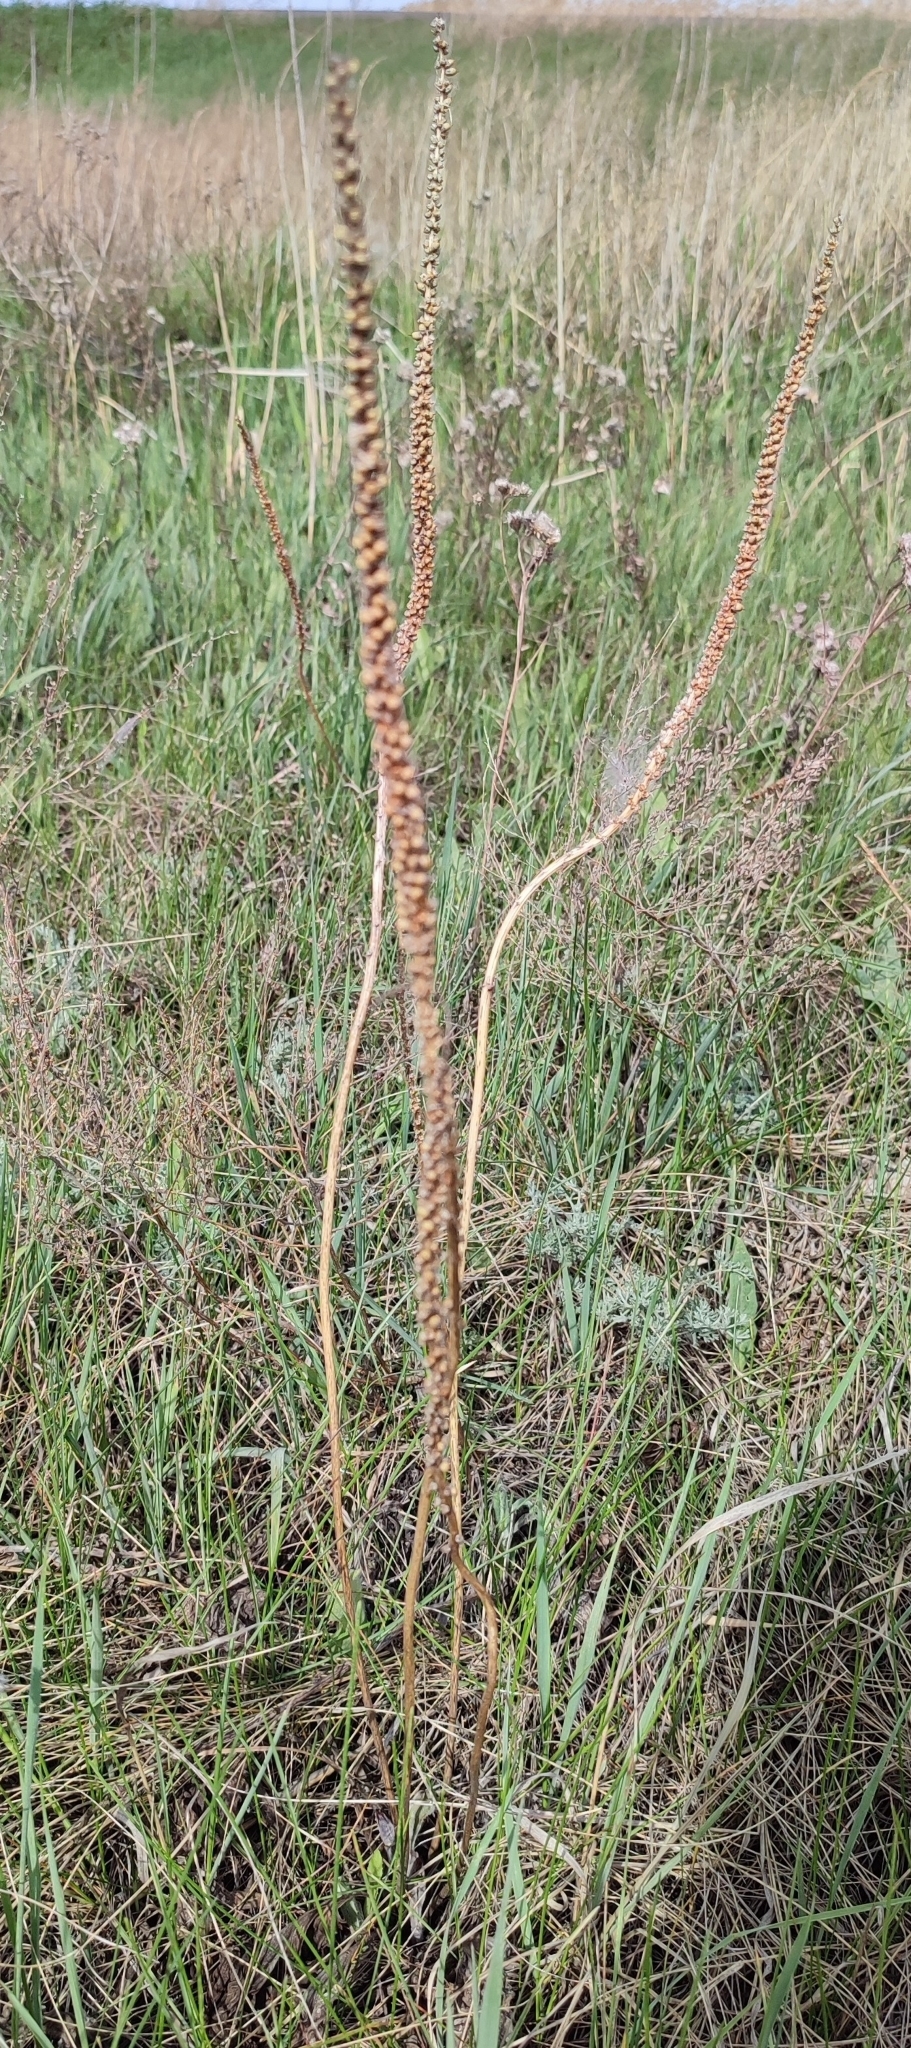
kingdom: Plantae
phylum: Tracheophyta
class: Magnoliopsida
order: Lamiales
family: Plantaginaceae
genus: Plantago
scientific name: Plantago cornuti
